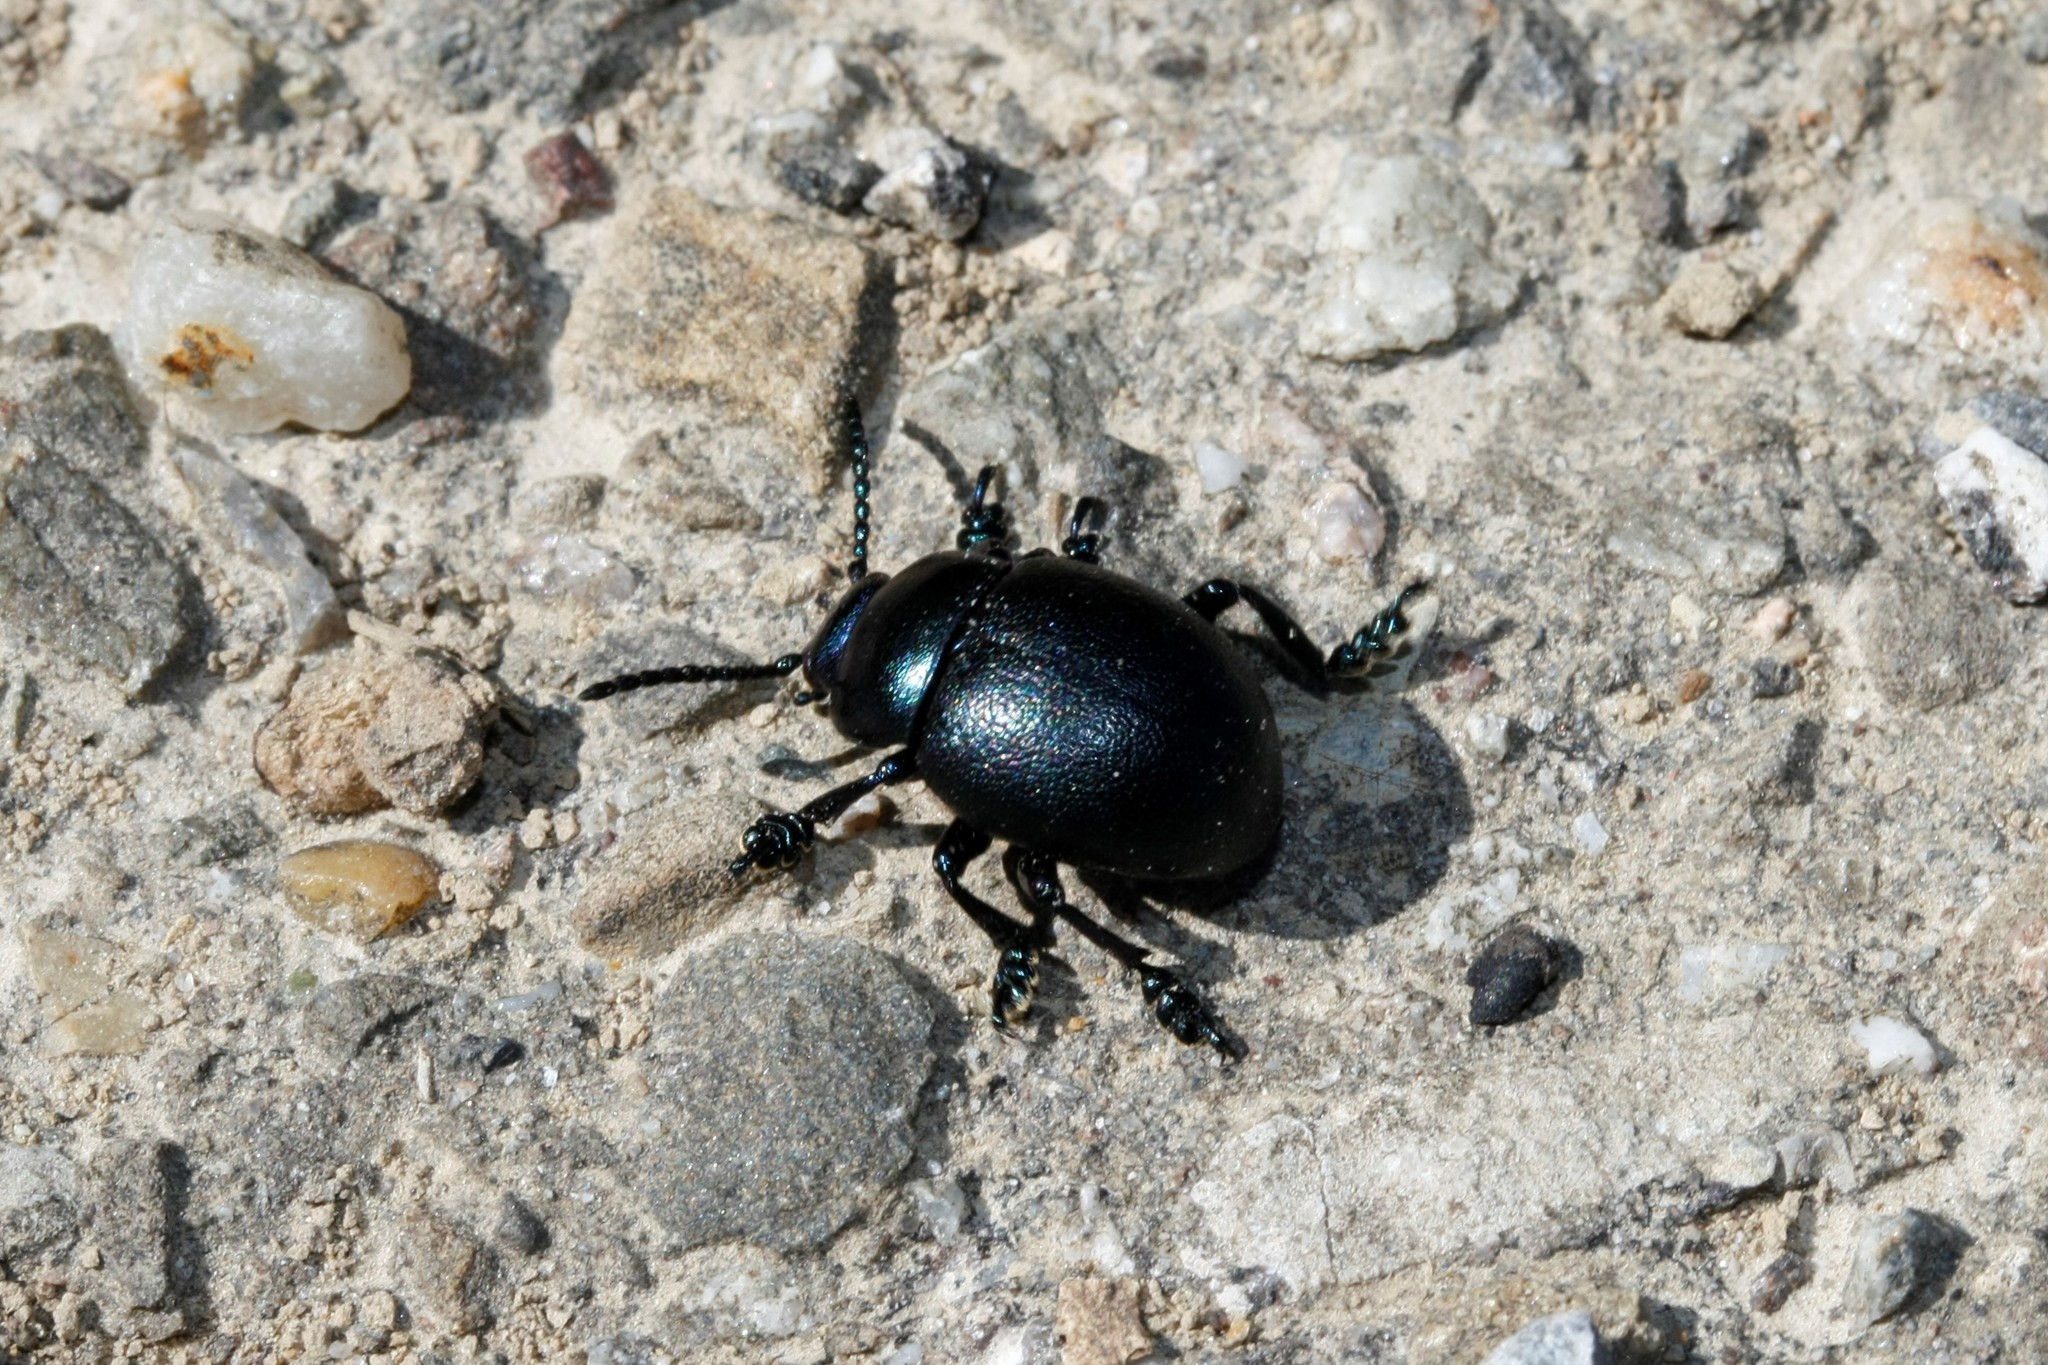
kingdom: Animalia
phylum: Arthropoda
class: Insecta
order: Coleoptera
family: Chrysomelidae
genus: Timarcha
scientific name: Timarcha goettingensis
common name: Small bloody-nosed beetle
